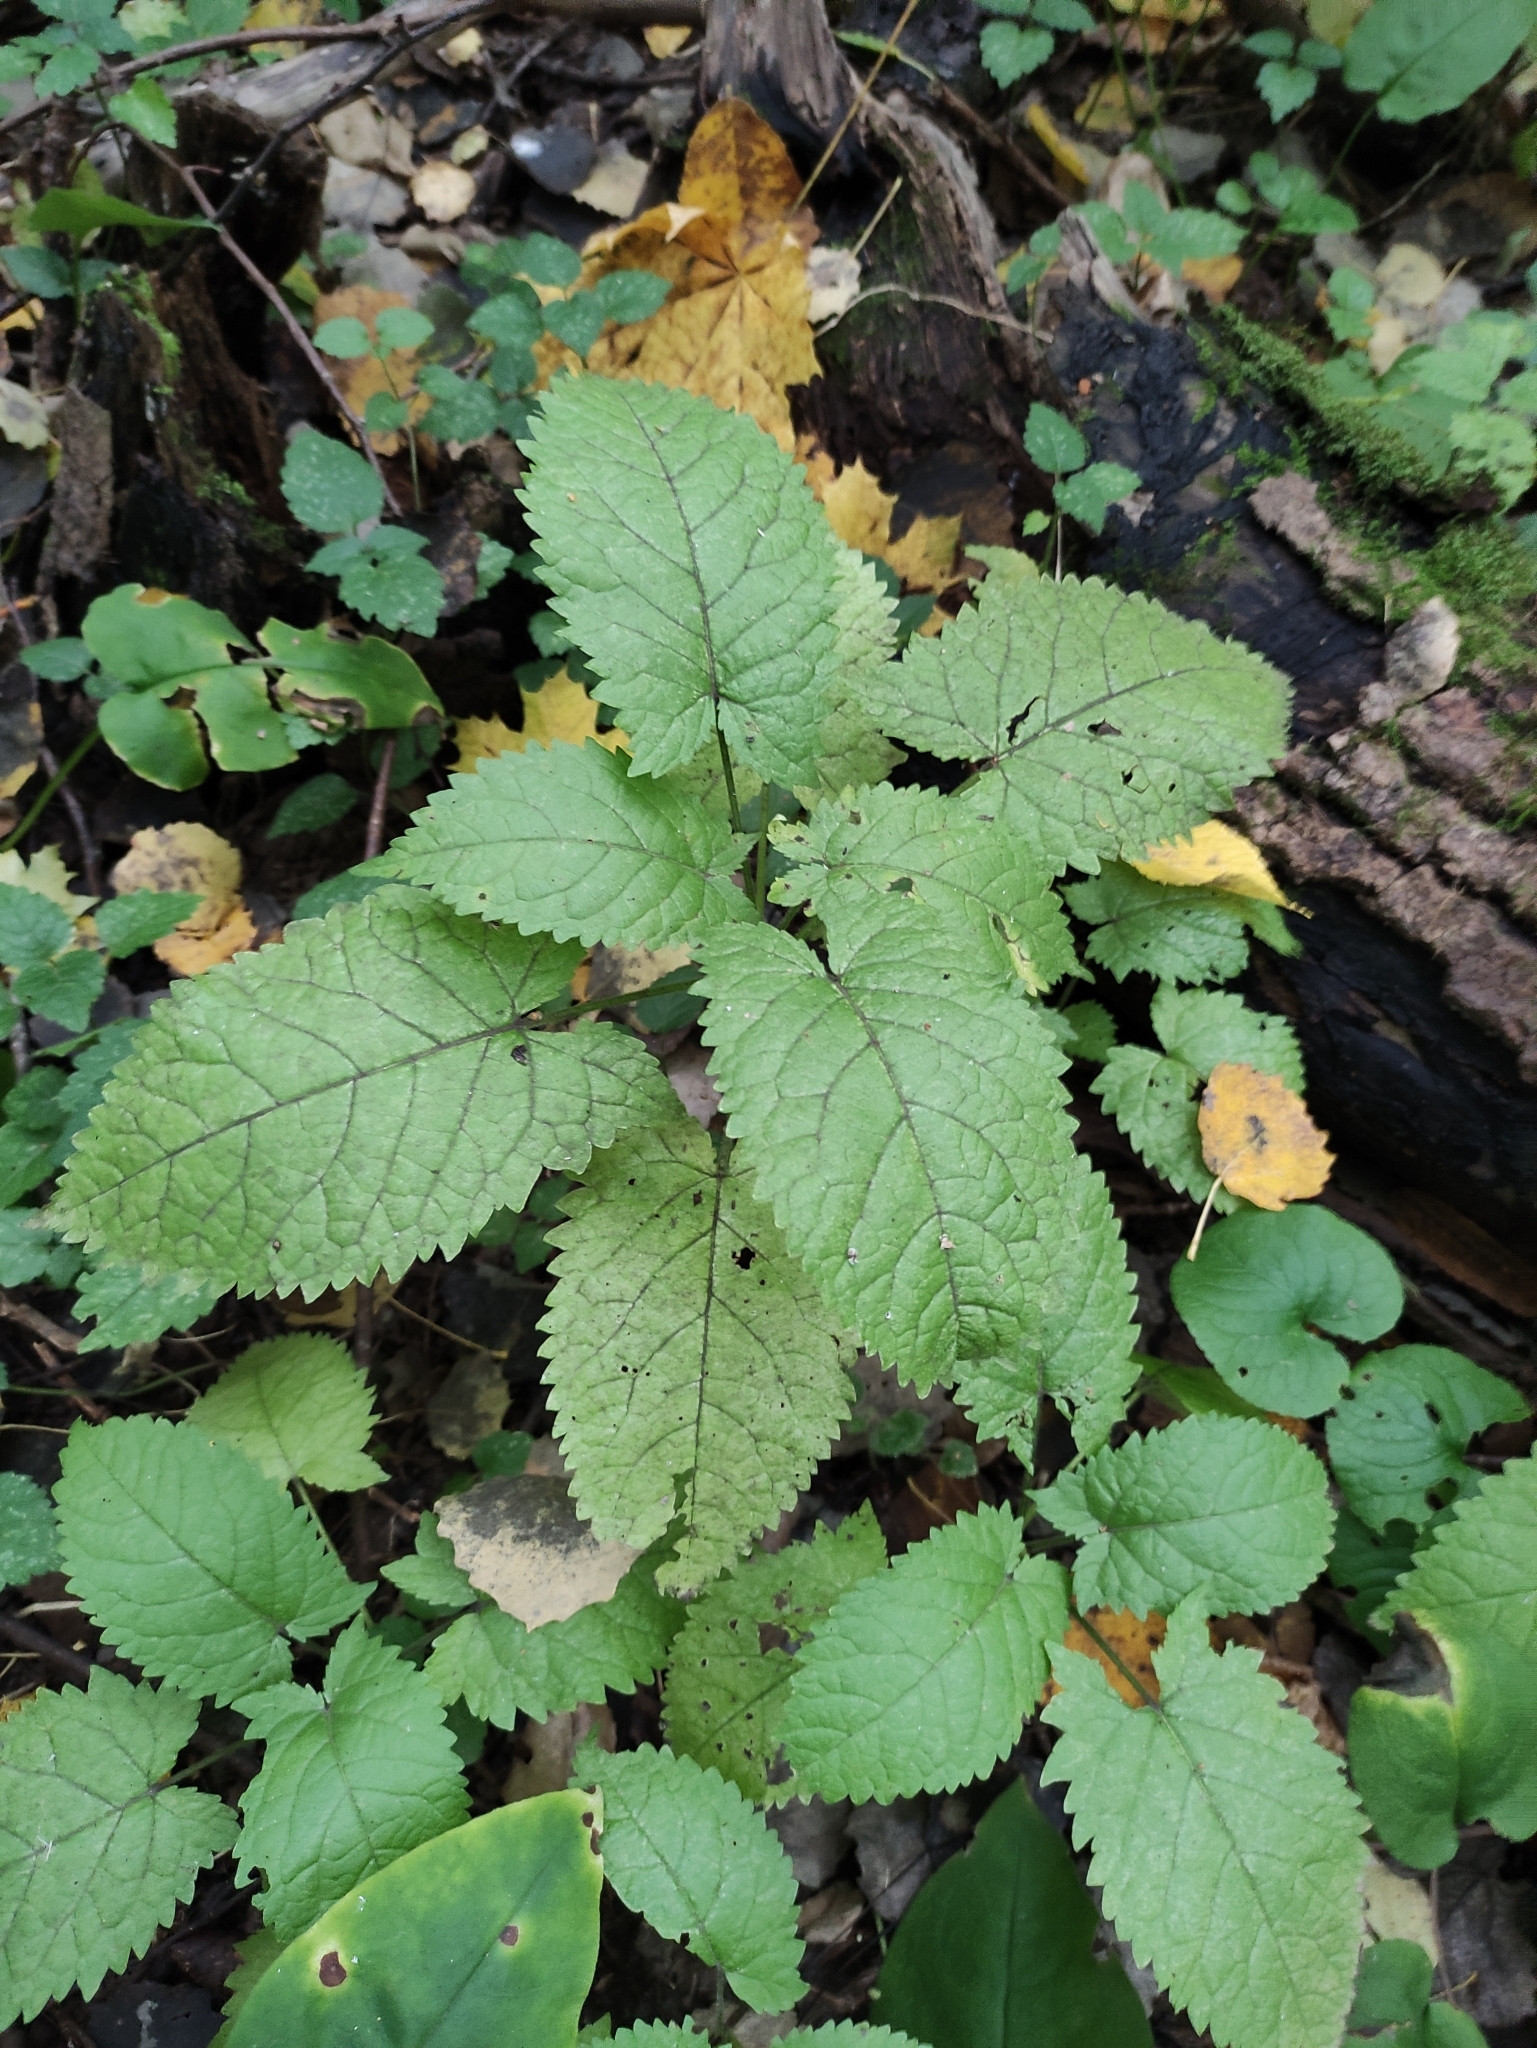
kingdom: Plantae
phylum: Tracheophyta
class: Magnoliopsida
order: Lamiales
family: Lamiaceae
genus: Salvia
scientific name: Salvia glutinosa
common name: Sticky clary
